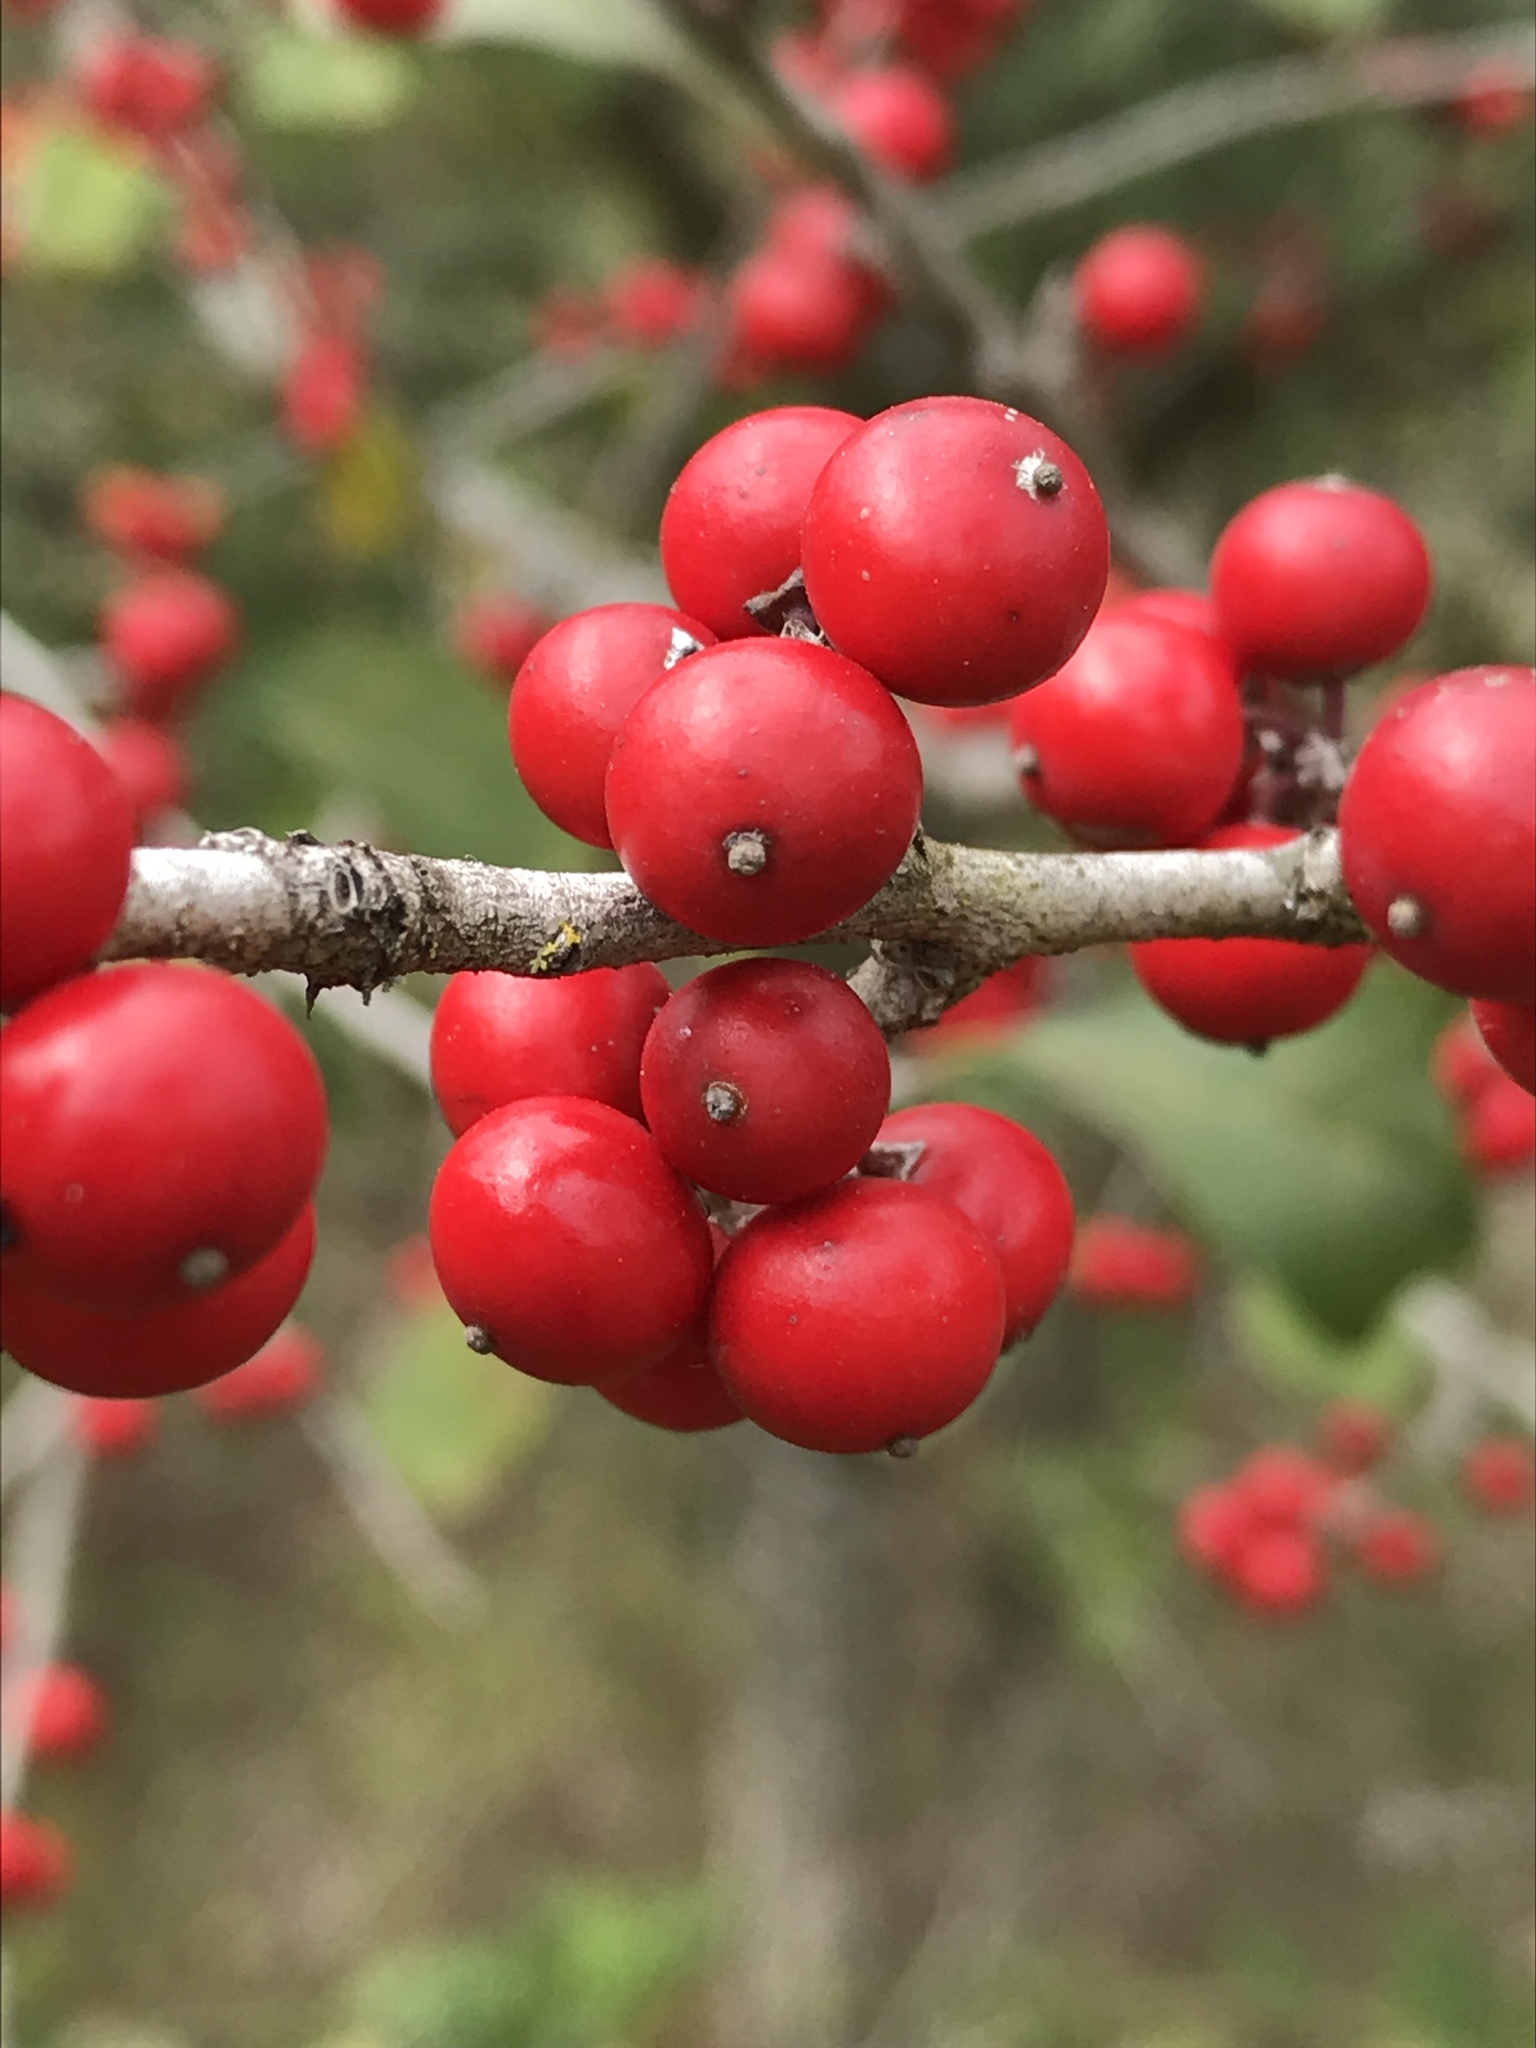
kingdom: Plantae
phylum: Tracheophyta
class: Magnoliopsida
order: Aquifoliales
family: Aquifoliaceae
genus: Ilex
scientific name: Ilex decidua
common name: Possum-haw
